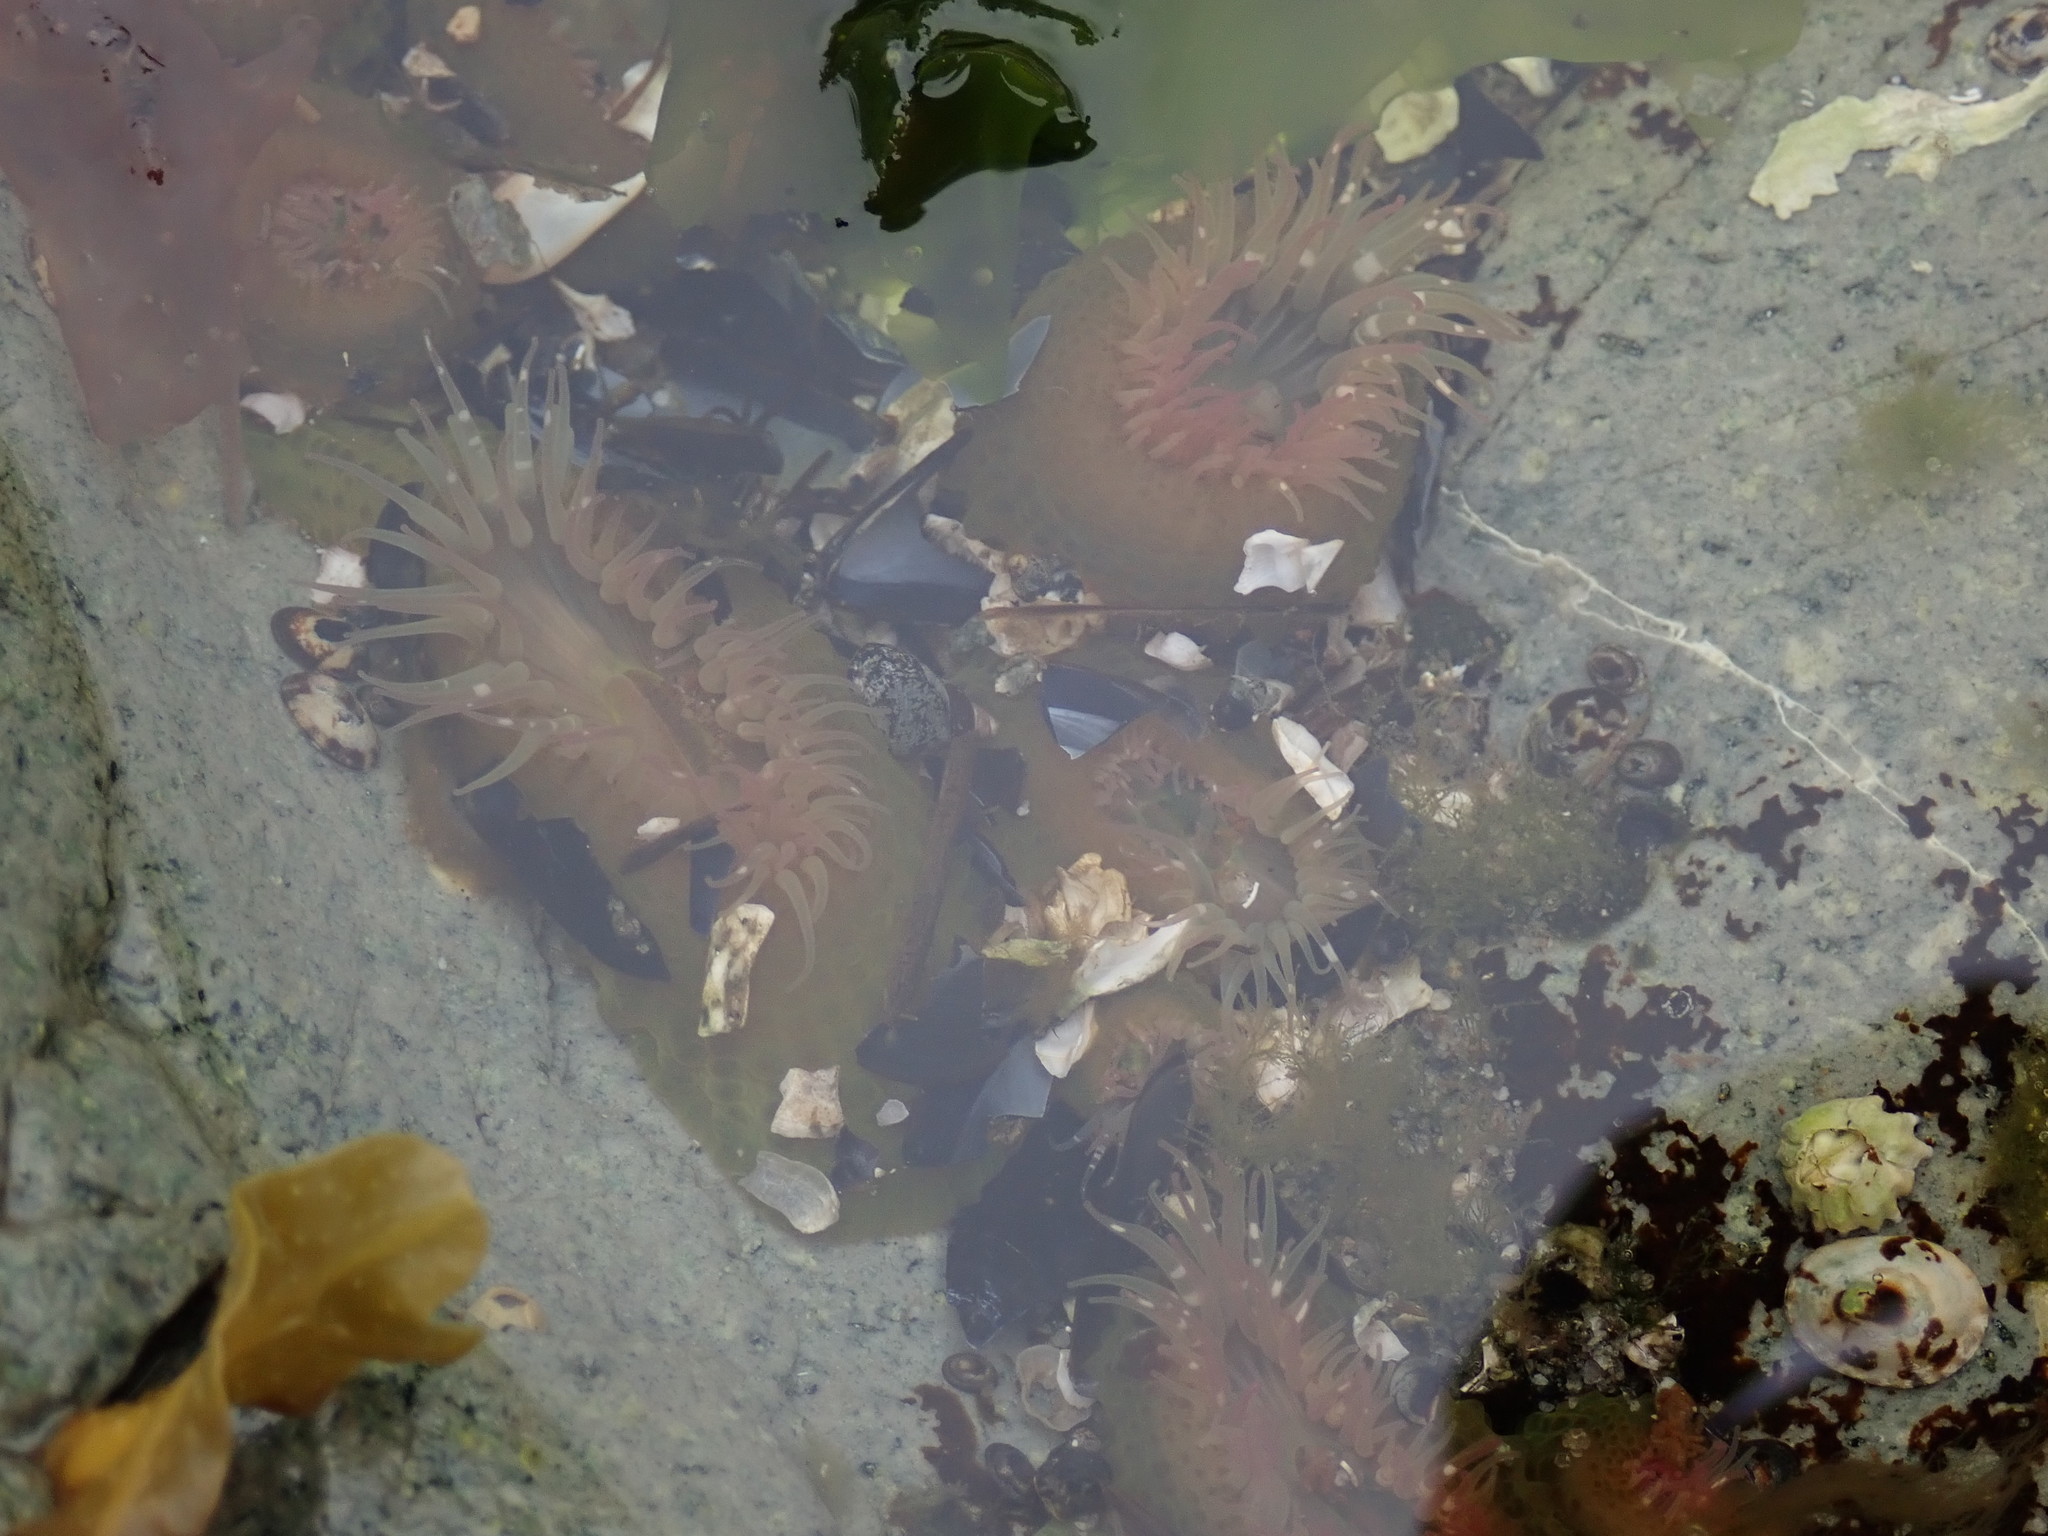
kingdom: Animalia
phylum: Cnidaria
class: Anthozoa
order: Actiniaria
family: Actiniidae
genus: Anthopleura
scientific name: Anthopleura elegantissima
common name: Clonal anemone
